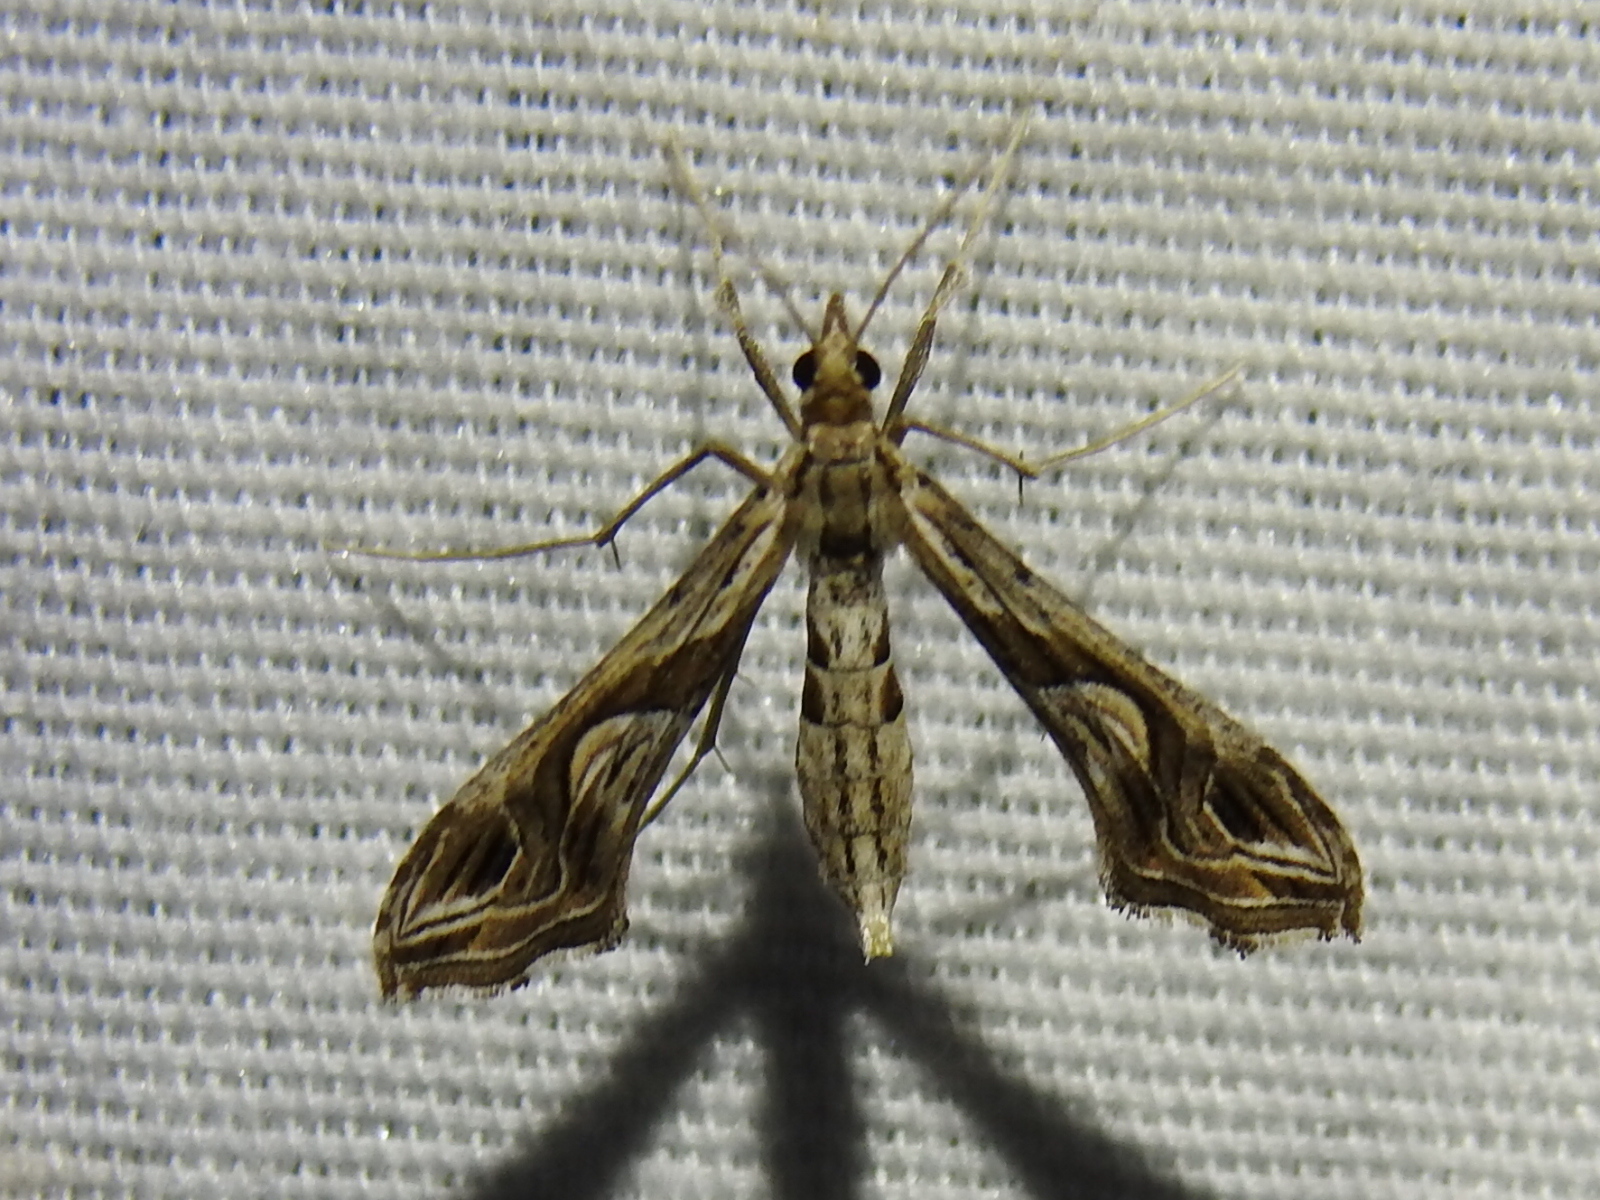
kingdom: Animalia
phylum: Arthropoda
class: Insecta
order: Lepidoptera
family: Crambidae
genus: Lineodes
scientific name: Lineodes integra
